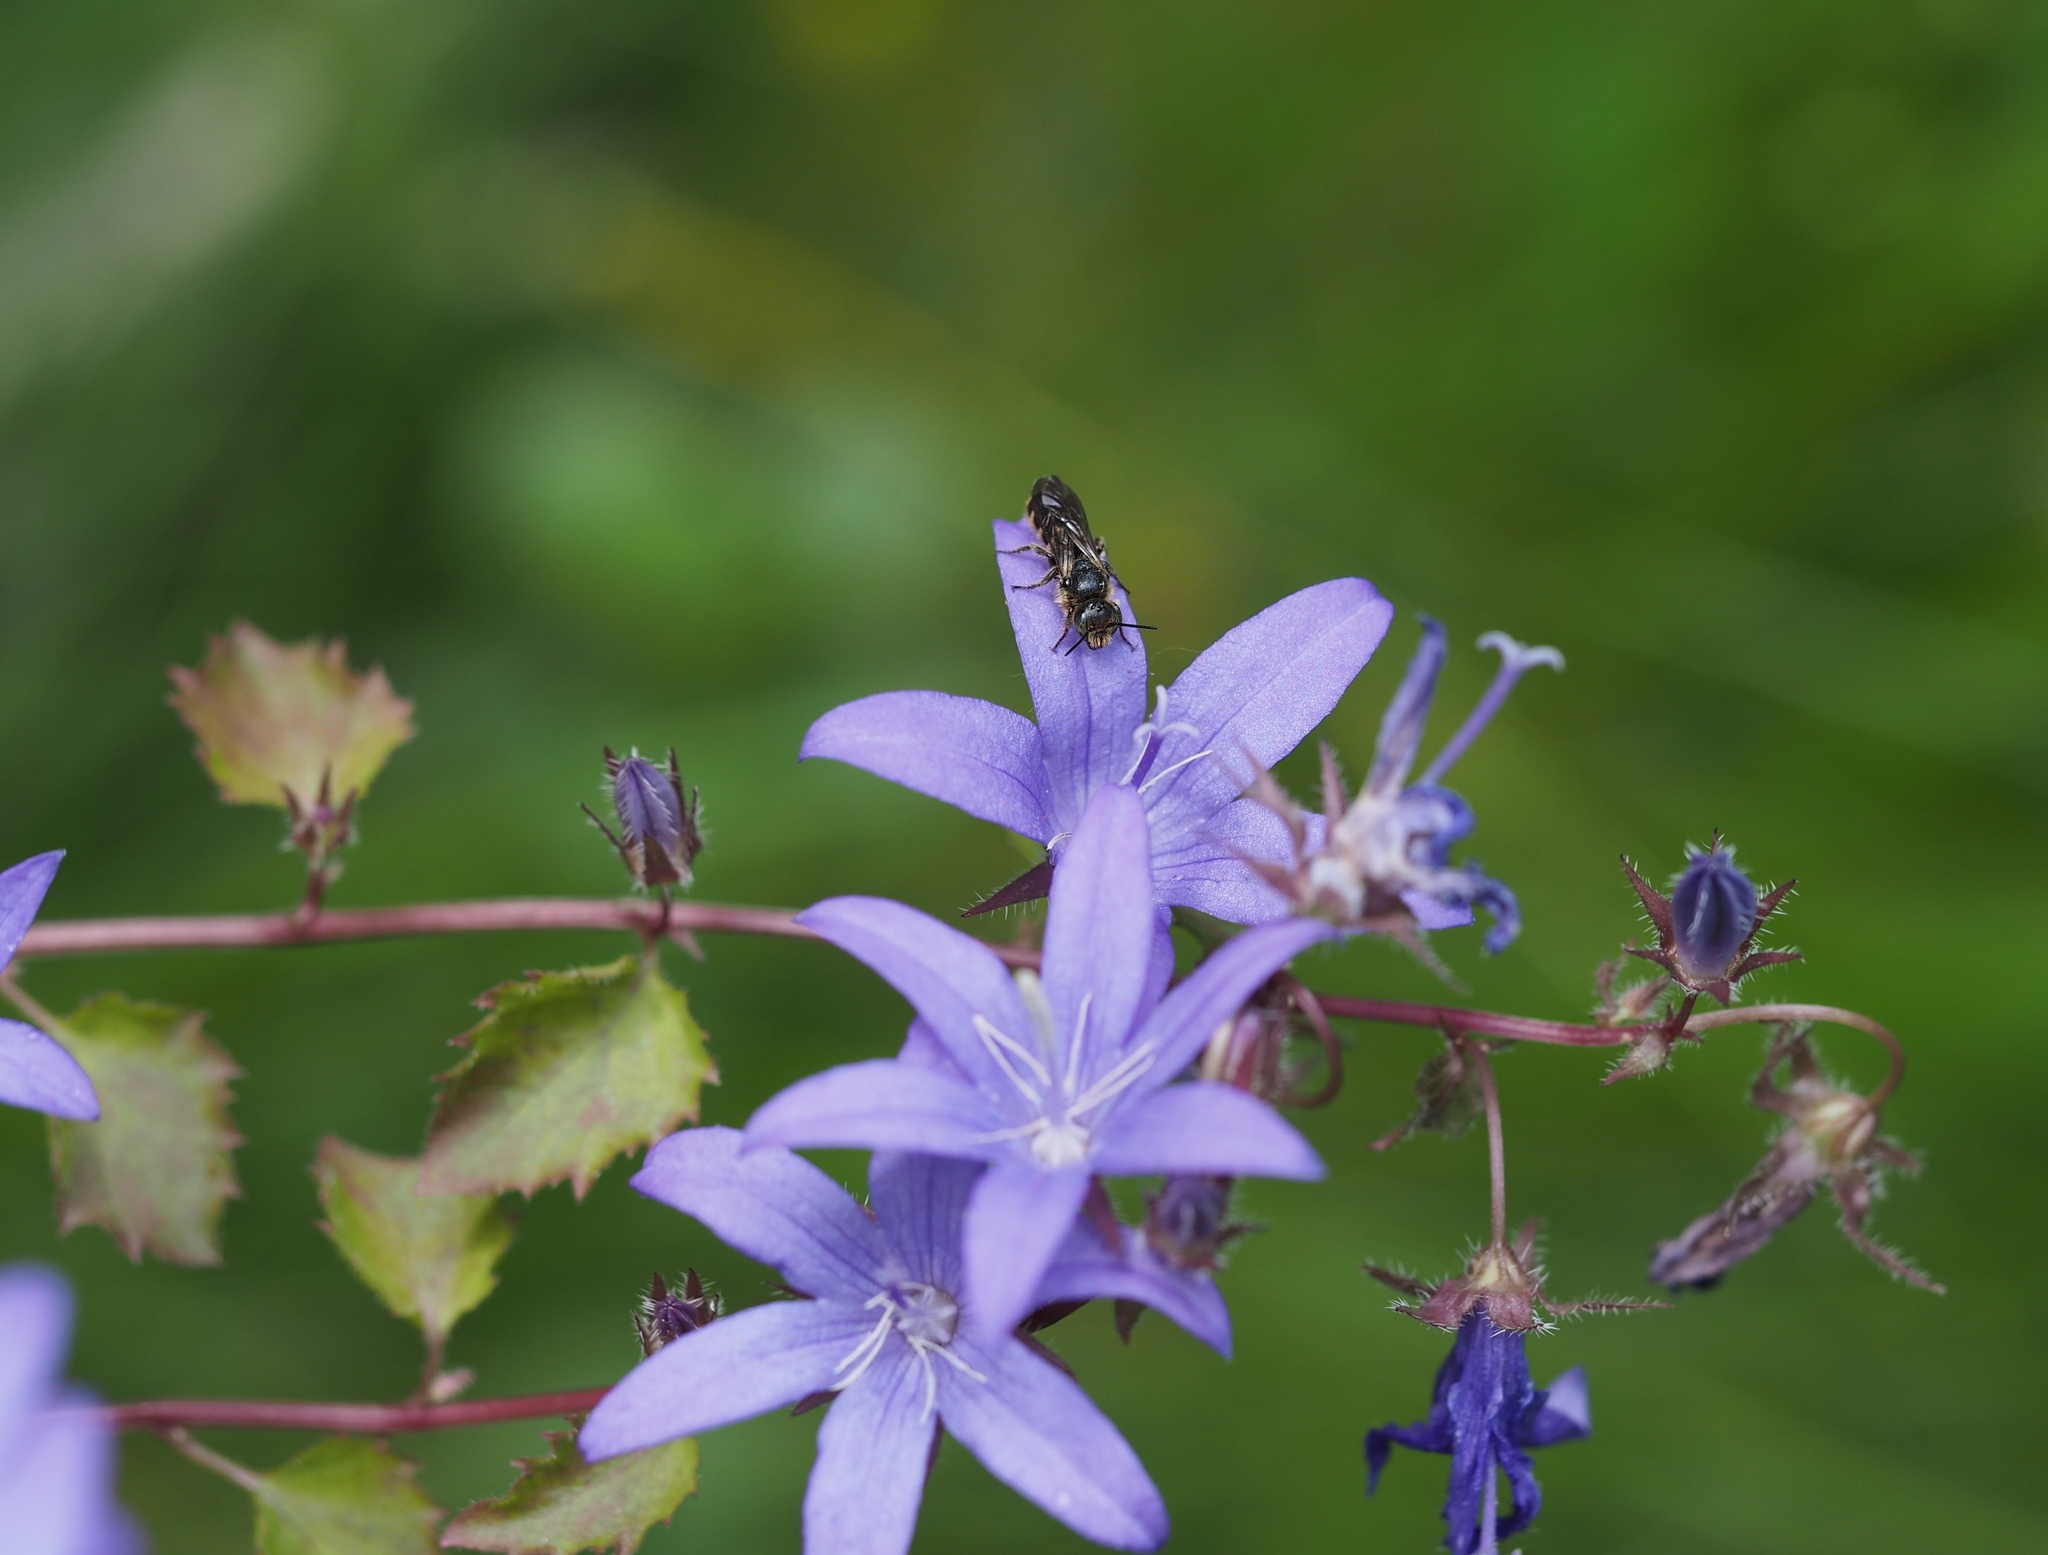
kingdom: Animalia
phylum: Arthropoda
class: Insecta
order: Hymenoptera
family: Megachilidae
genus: Chelostoma
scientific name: Chelostoma rapunculi
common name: Rampion scissor bee
